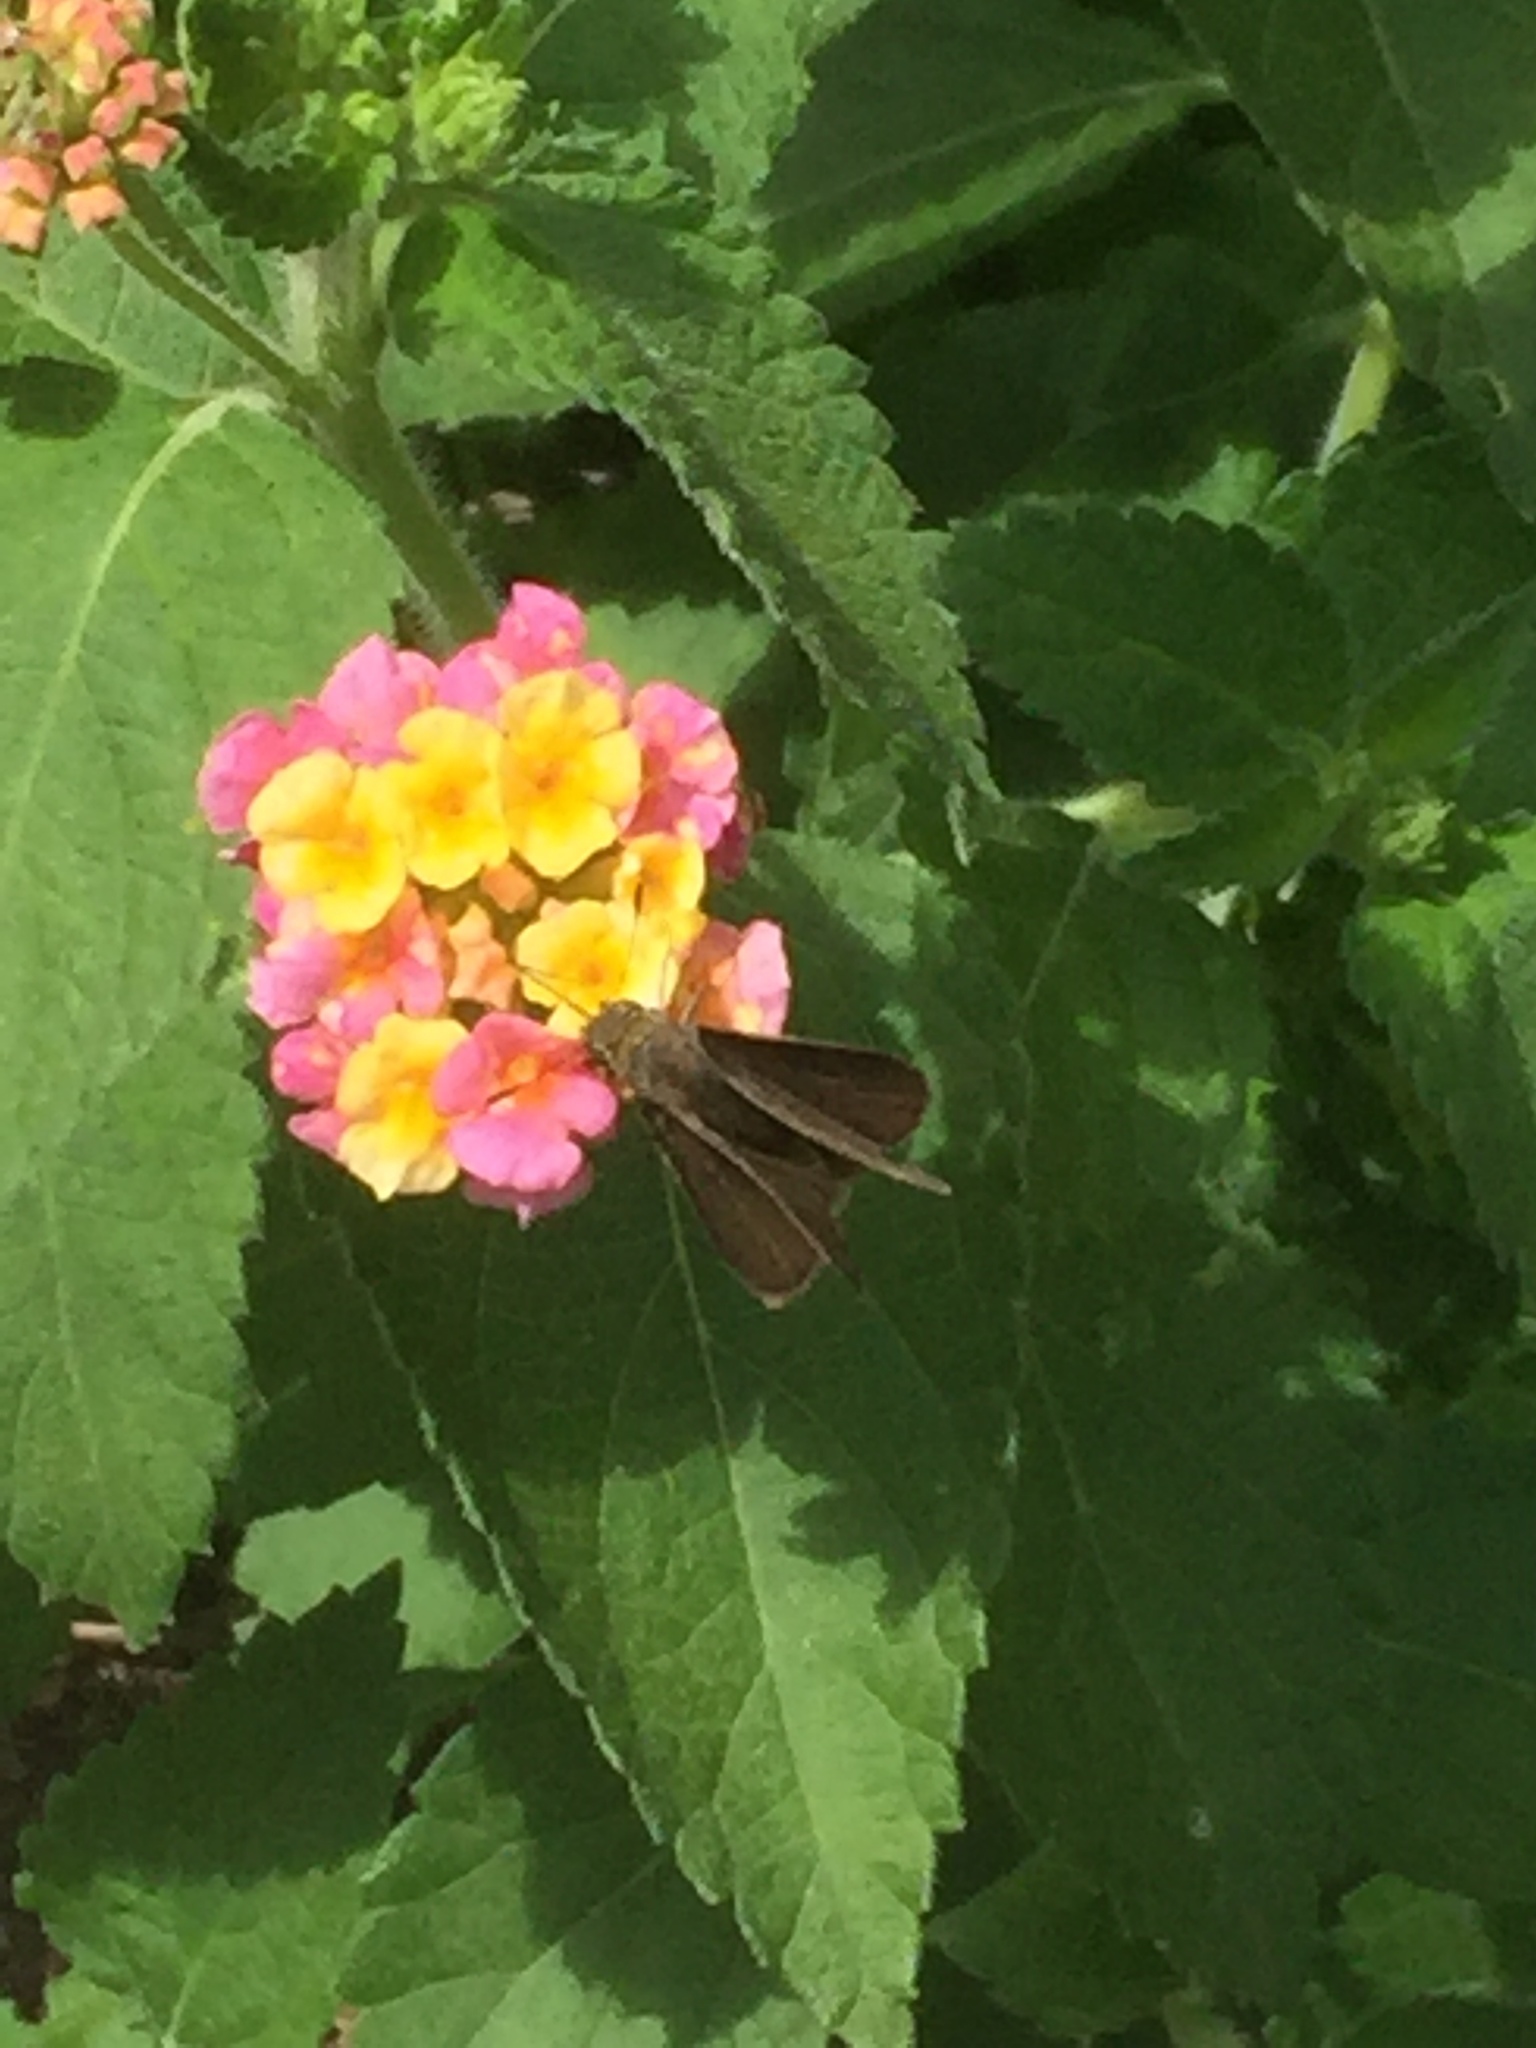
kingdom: Animalia
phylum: Arthropoda
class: Insecta
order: Lepidoptera
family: Hesperiidae
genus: Euphyes
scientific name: Euphyes vestris
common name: Dun skipper
